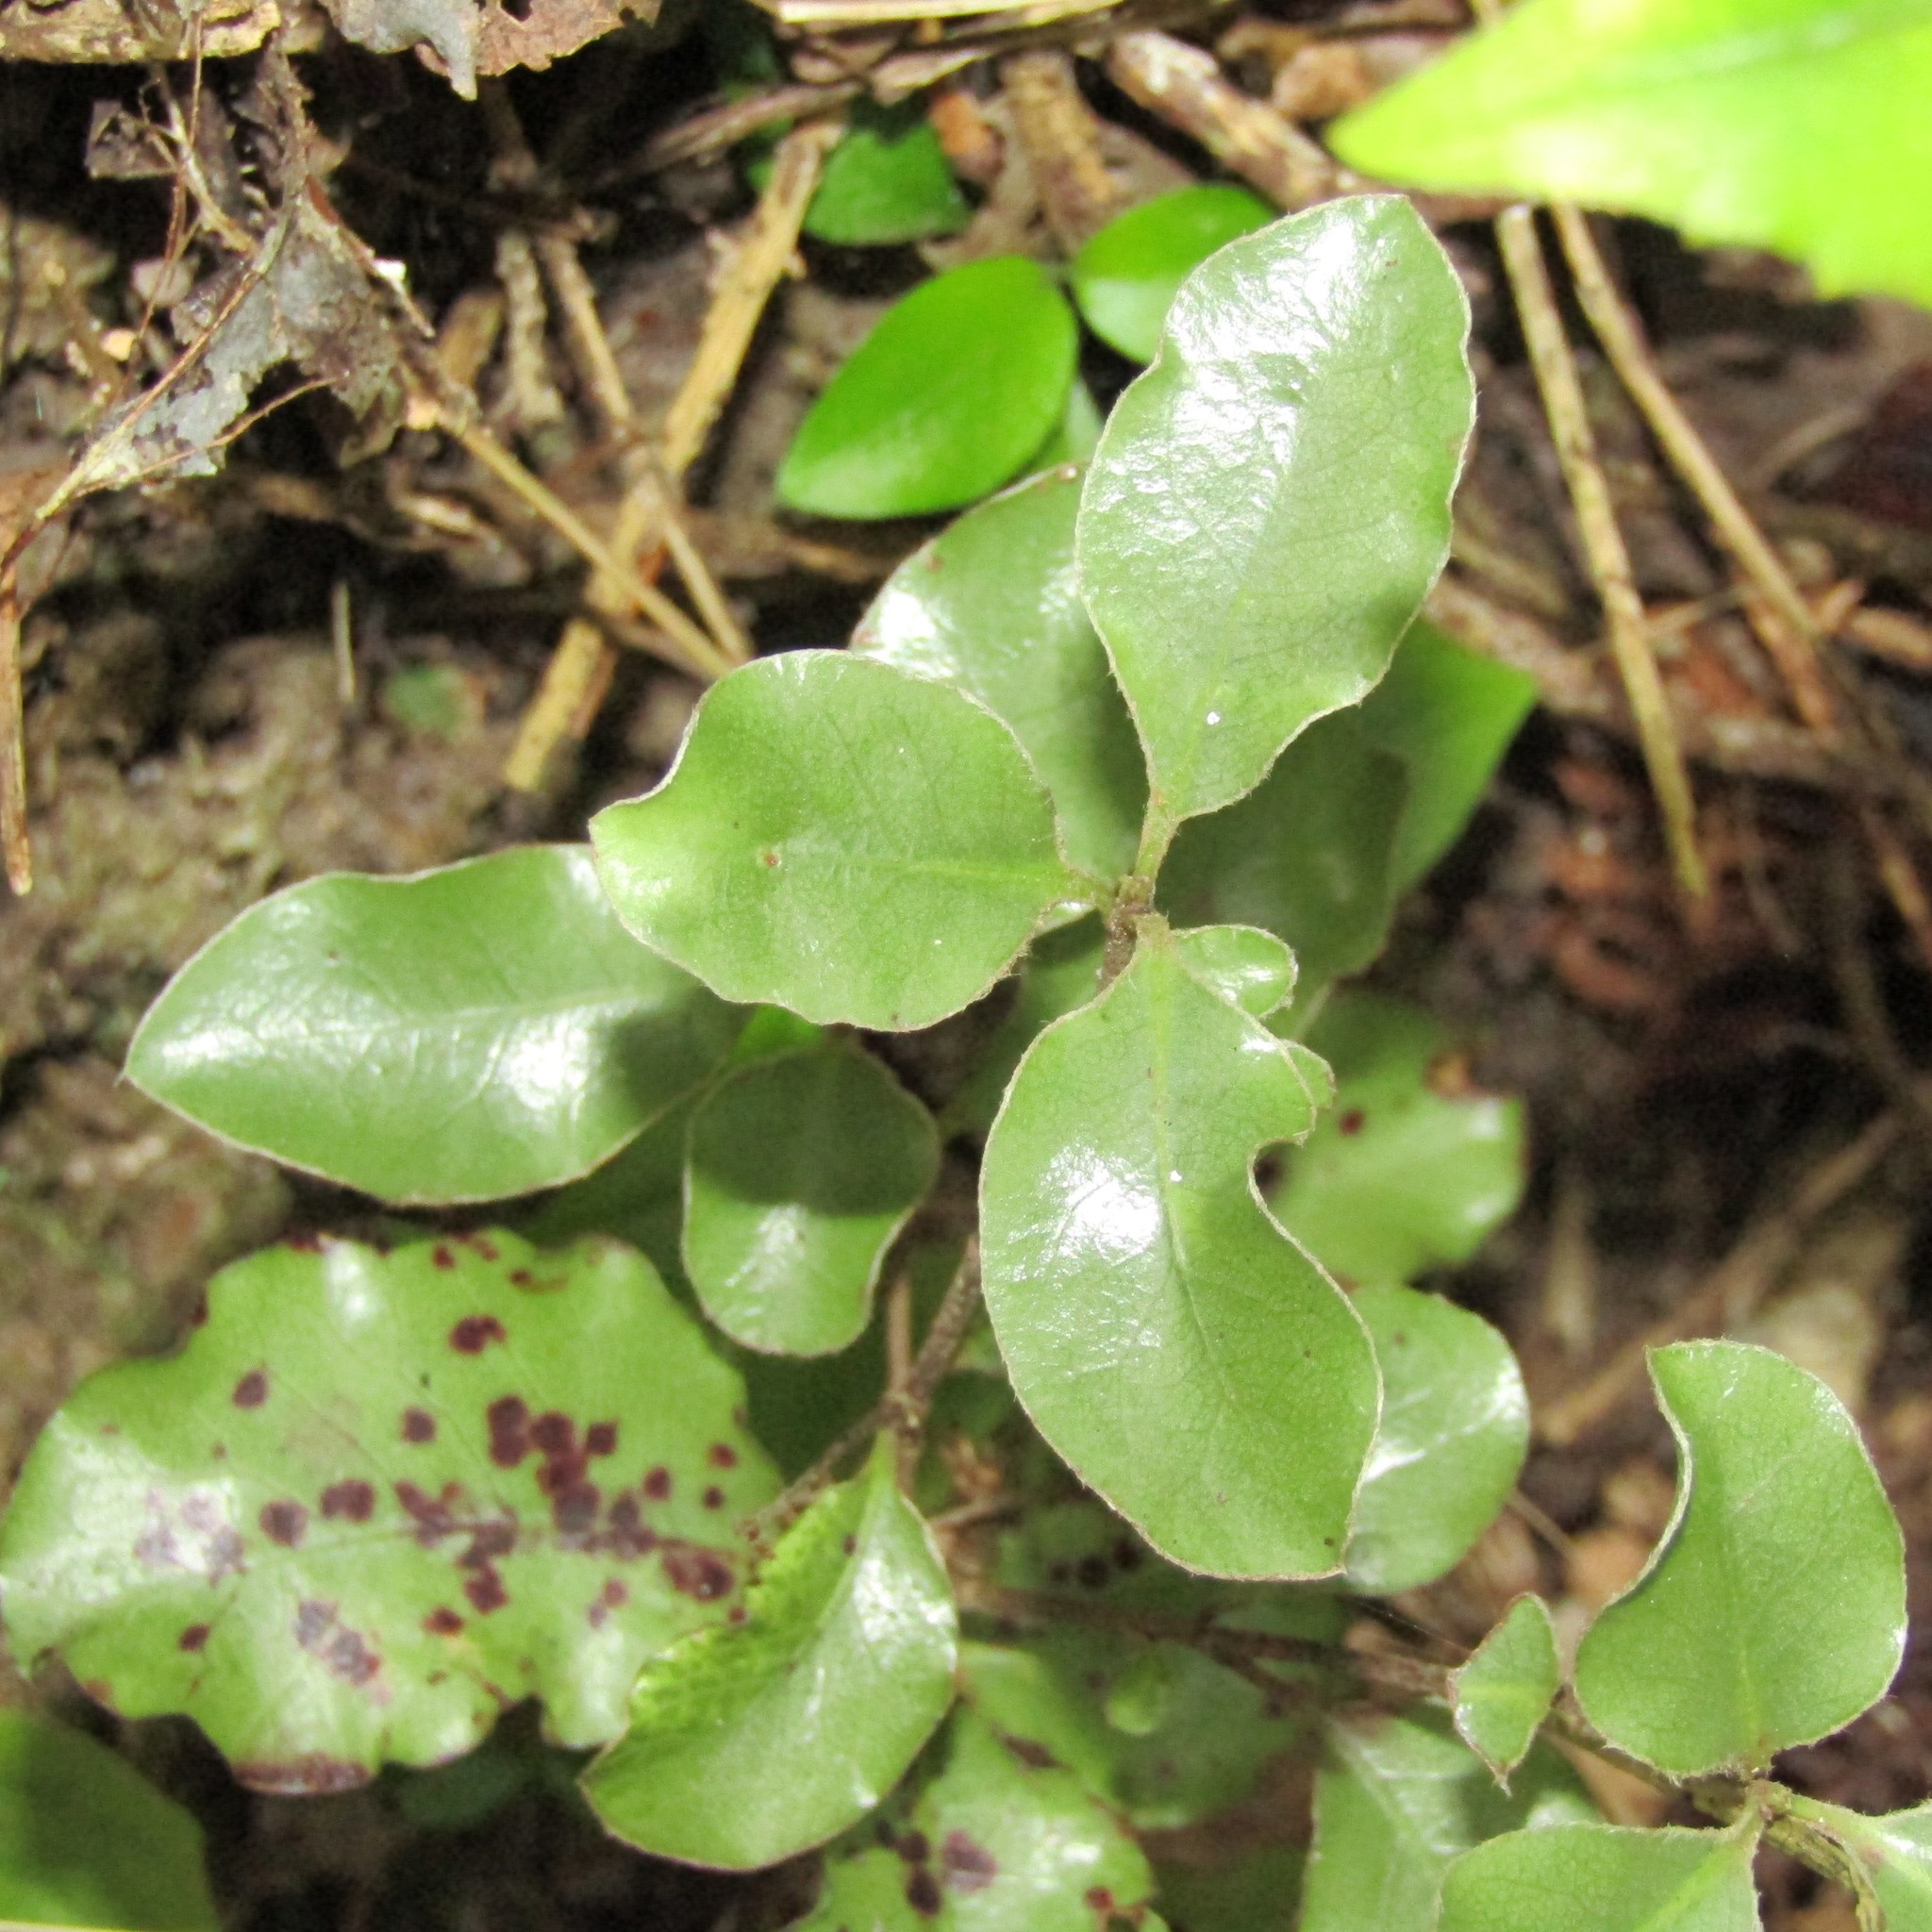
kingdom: Plantae
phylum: Tracheophyta
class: Magnoliopsida
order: Apiales
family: Pittosporaceae
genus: Pittosporum
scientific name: Pittosporum tenuifolium
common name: Kohuhu
